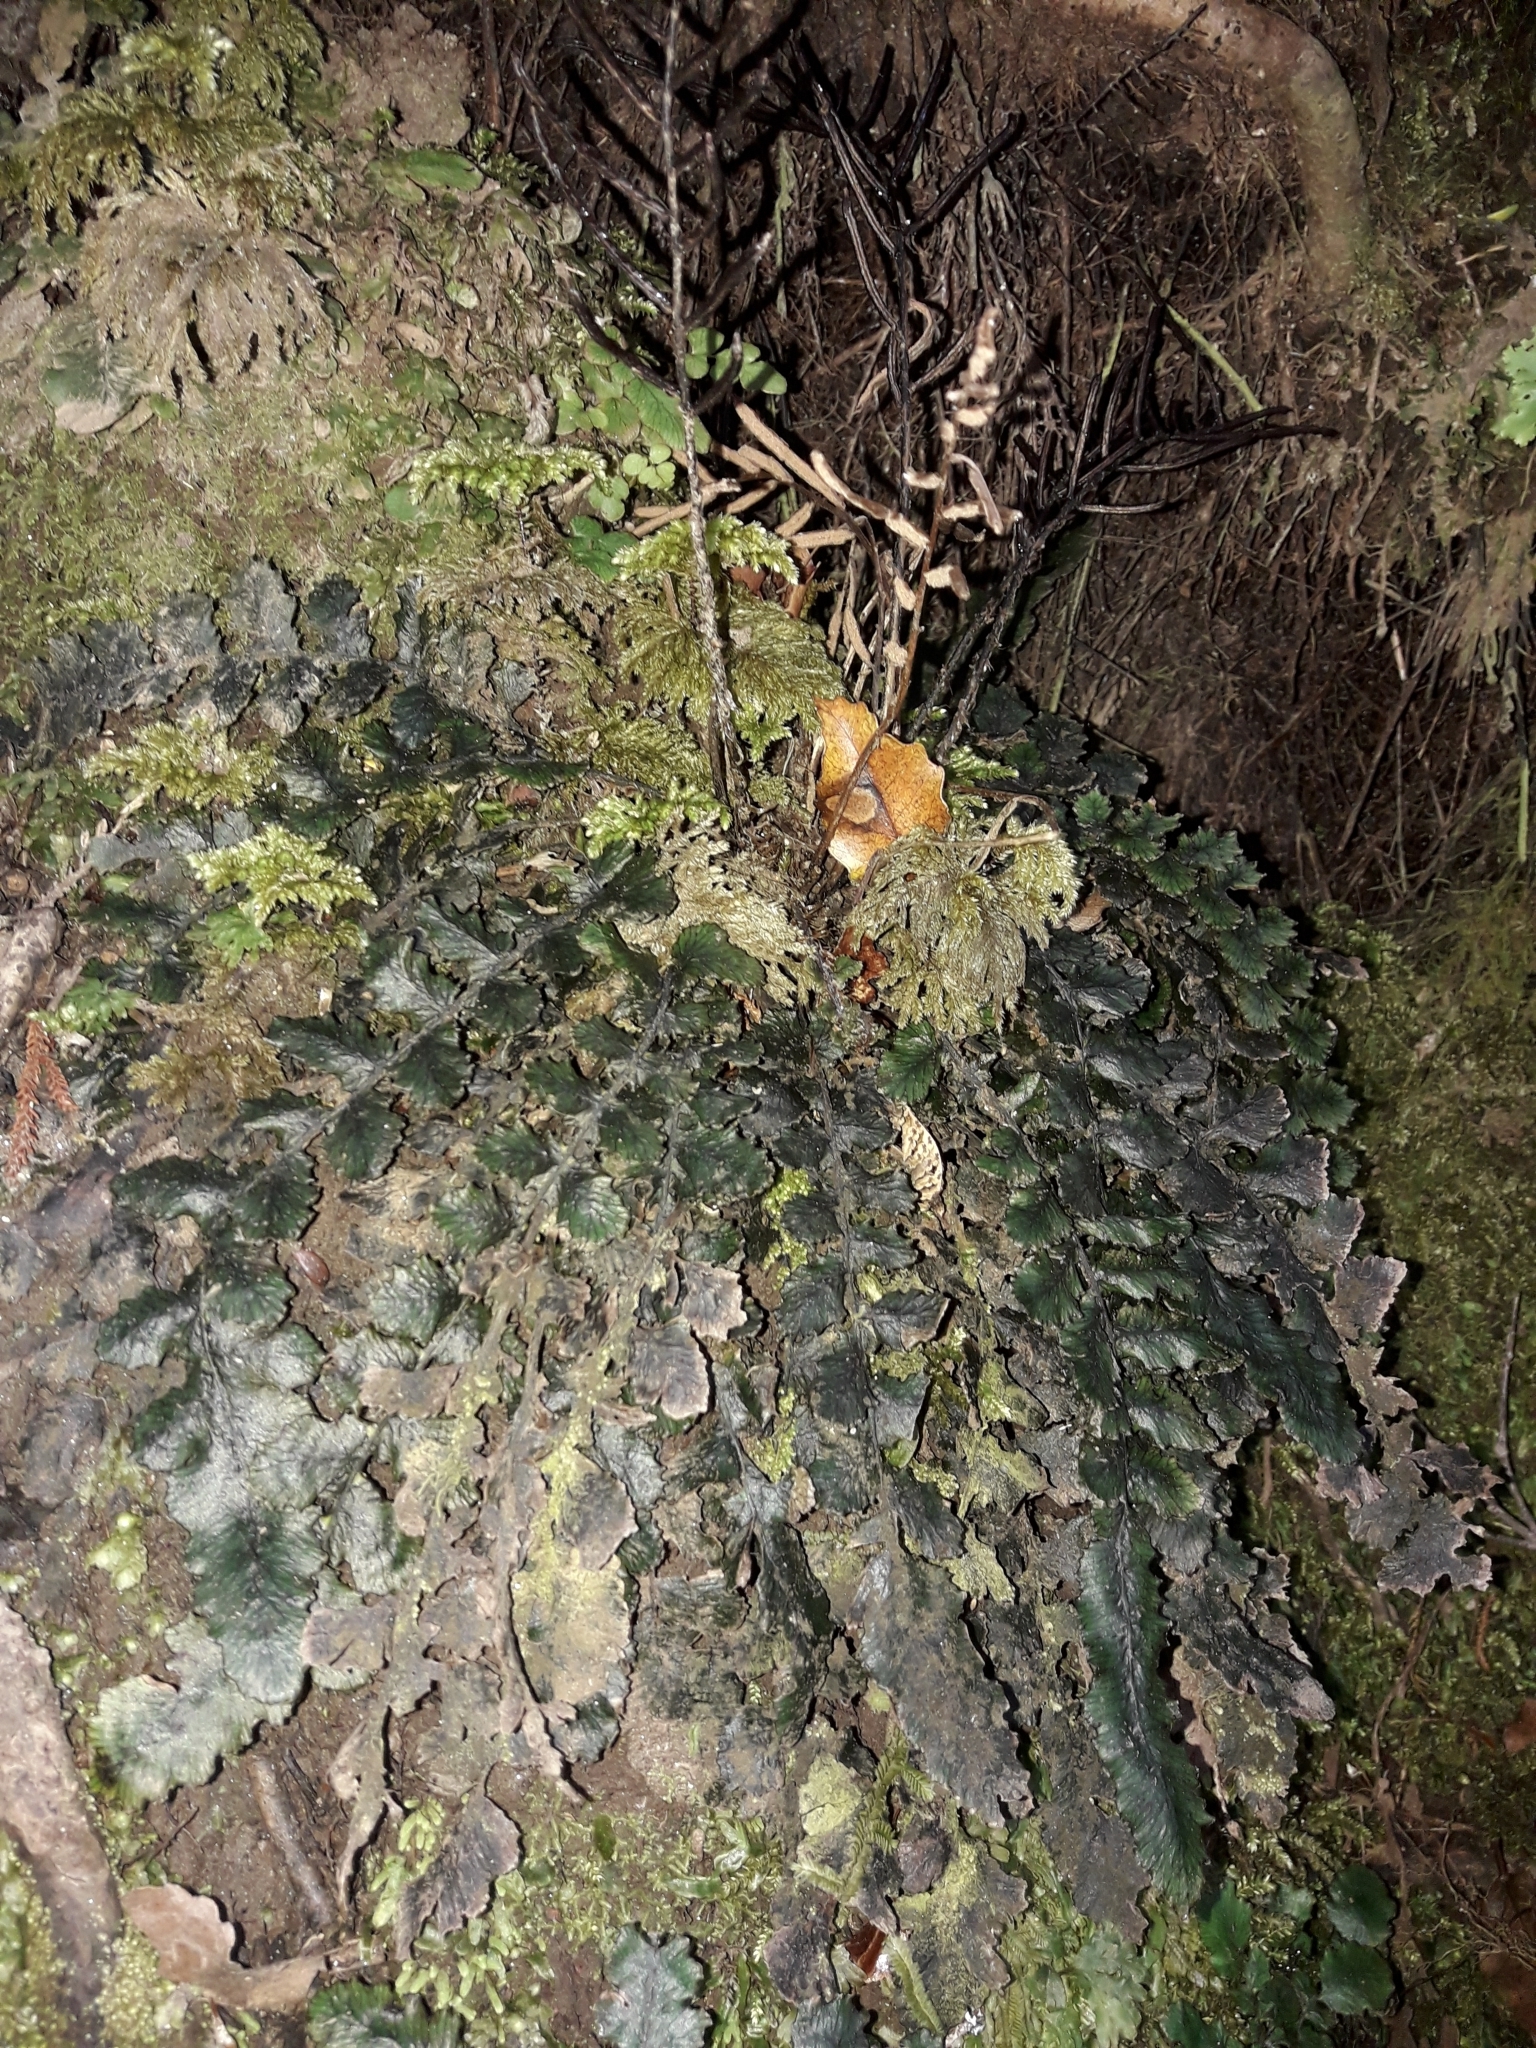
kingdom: Plantae
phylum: Tracheophyta
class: Polypodiopsida
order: Polypodiales
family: Blechnaceae
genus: Cranfillia
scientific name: Cranfillia nigra
